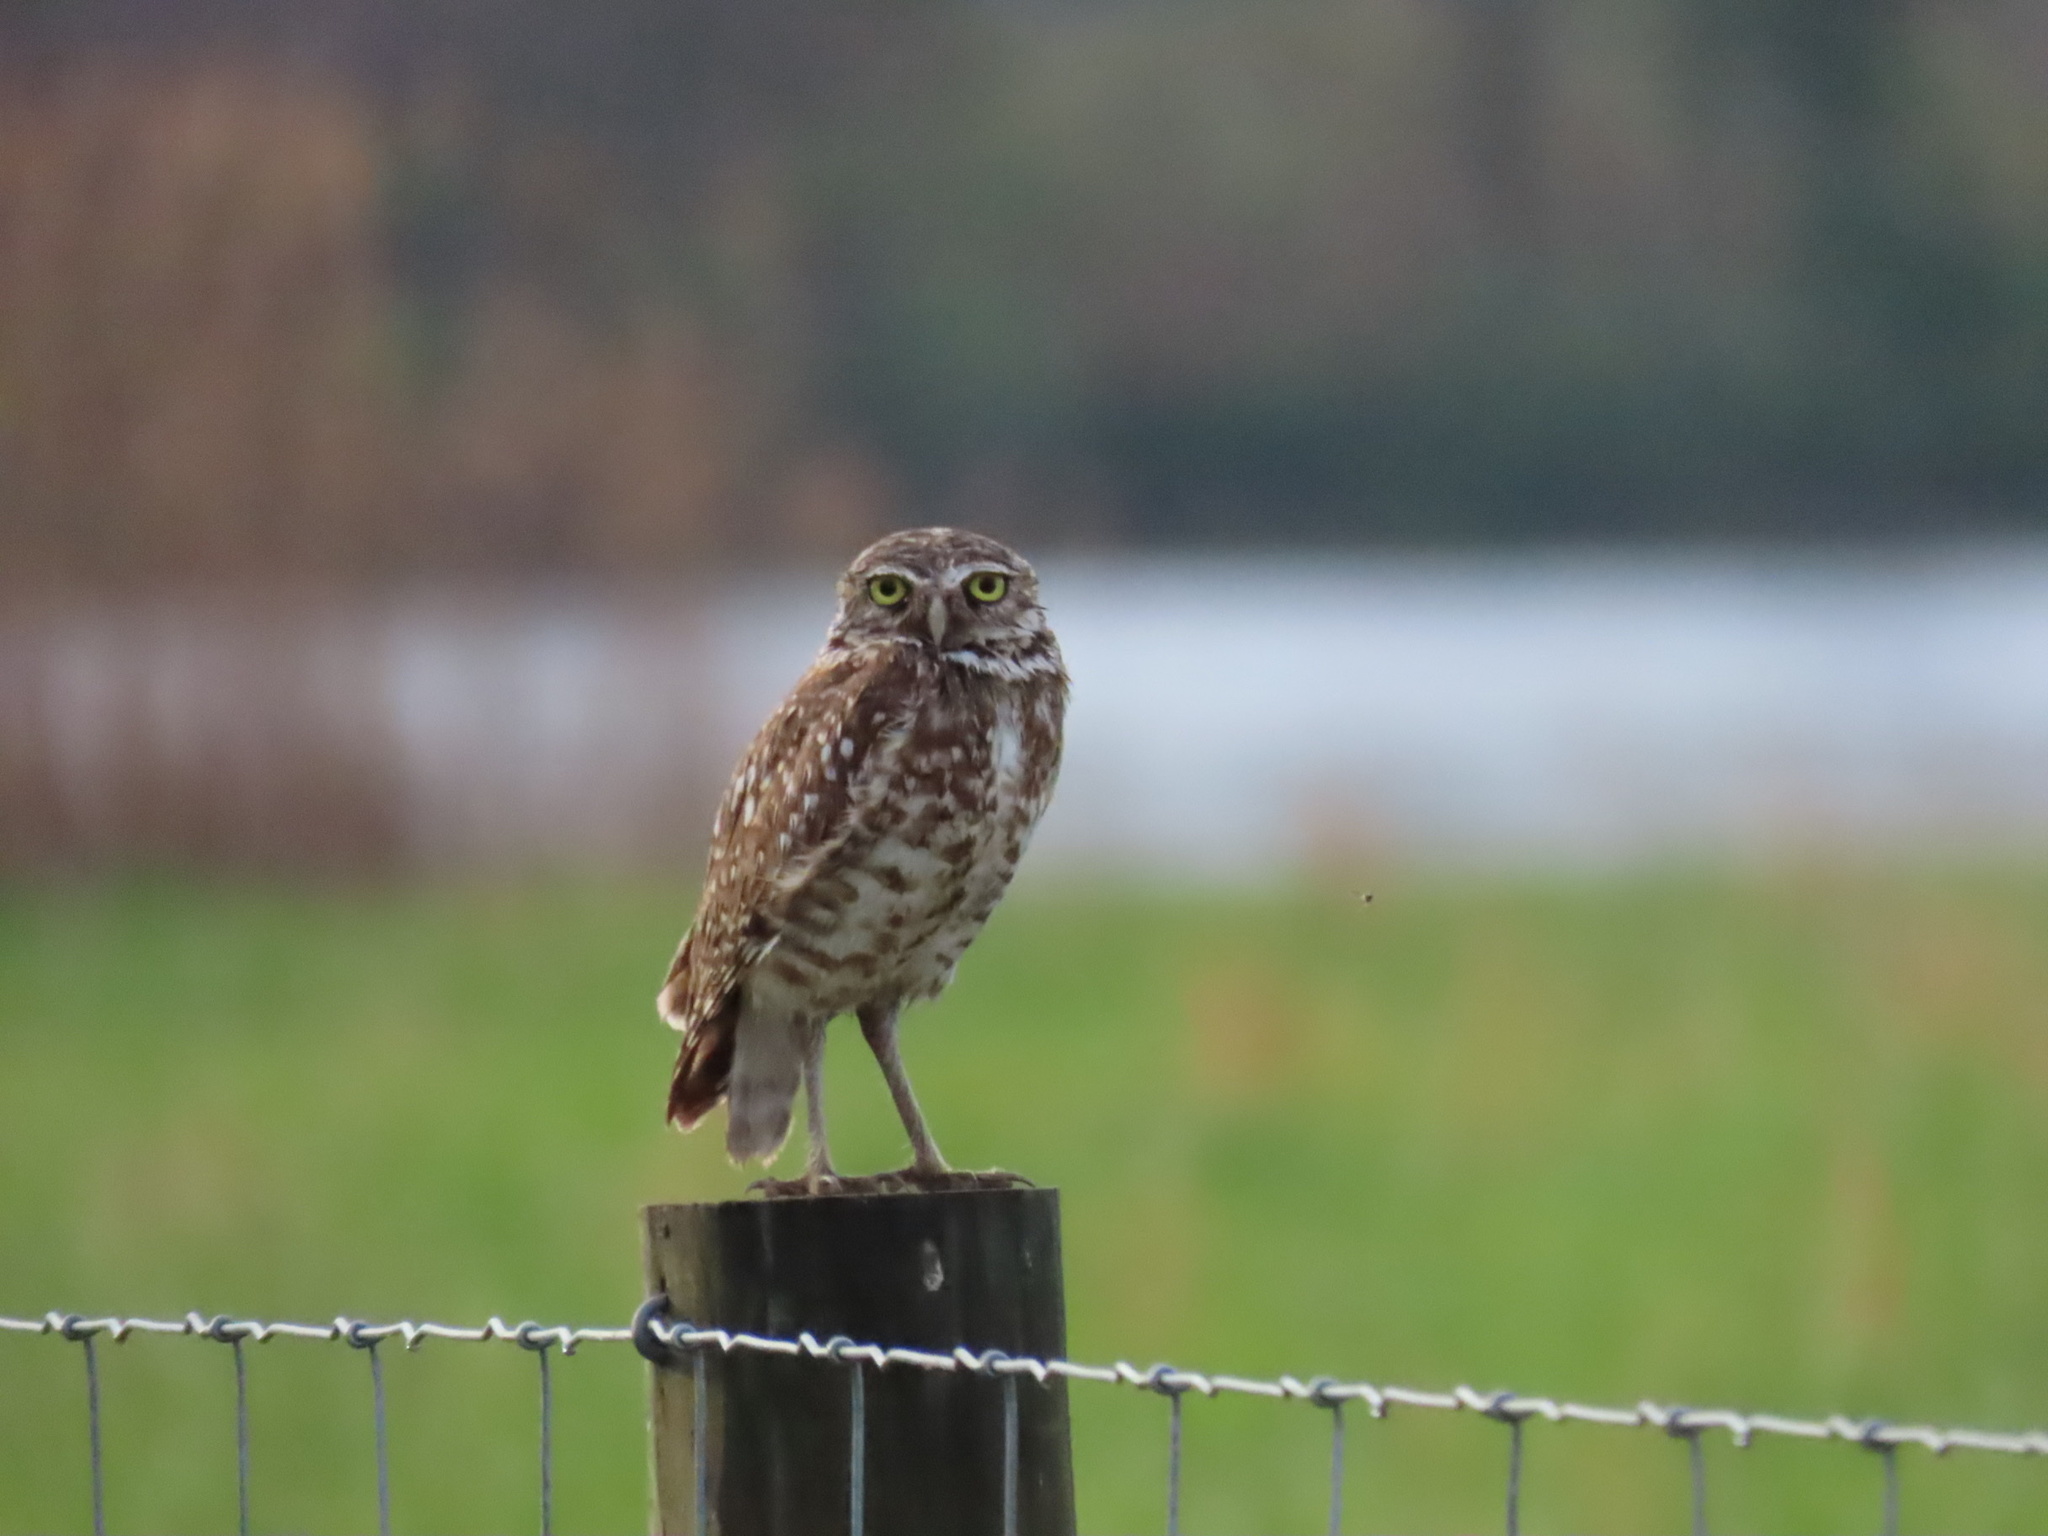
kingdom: Animalia
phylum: Chordata
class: Aves
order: Strigiformes
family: Strigidae
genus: Athene
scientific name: Athene cunicularia
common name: Burrowing owl
